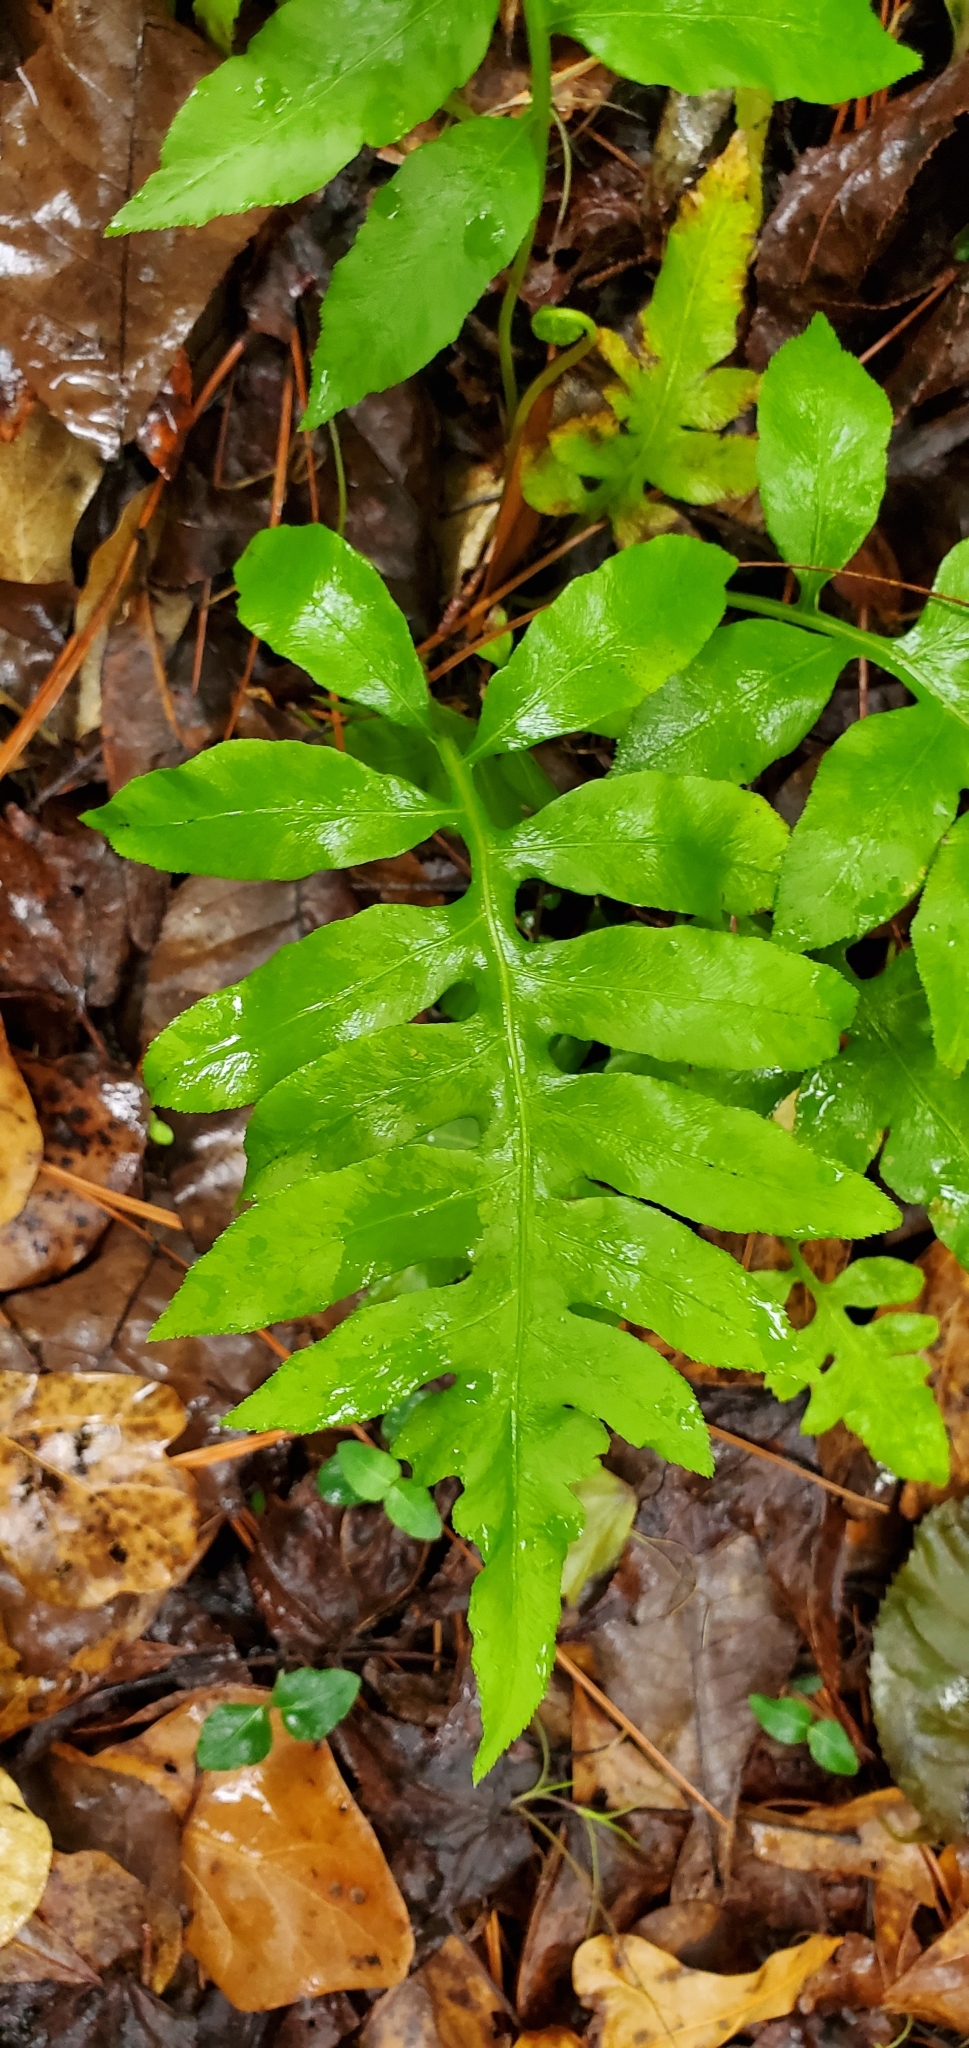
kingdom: Plantae
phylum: Tracheophyta
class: Polypodiopsida
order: Polypodiales
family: Blechnaceae
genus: Lorinseria
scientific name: Lorinseria areolata
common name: Dwarf chain fern
